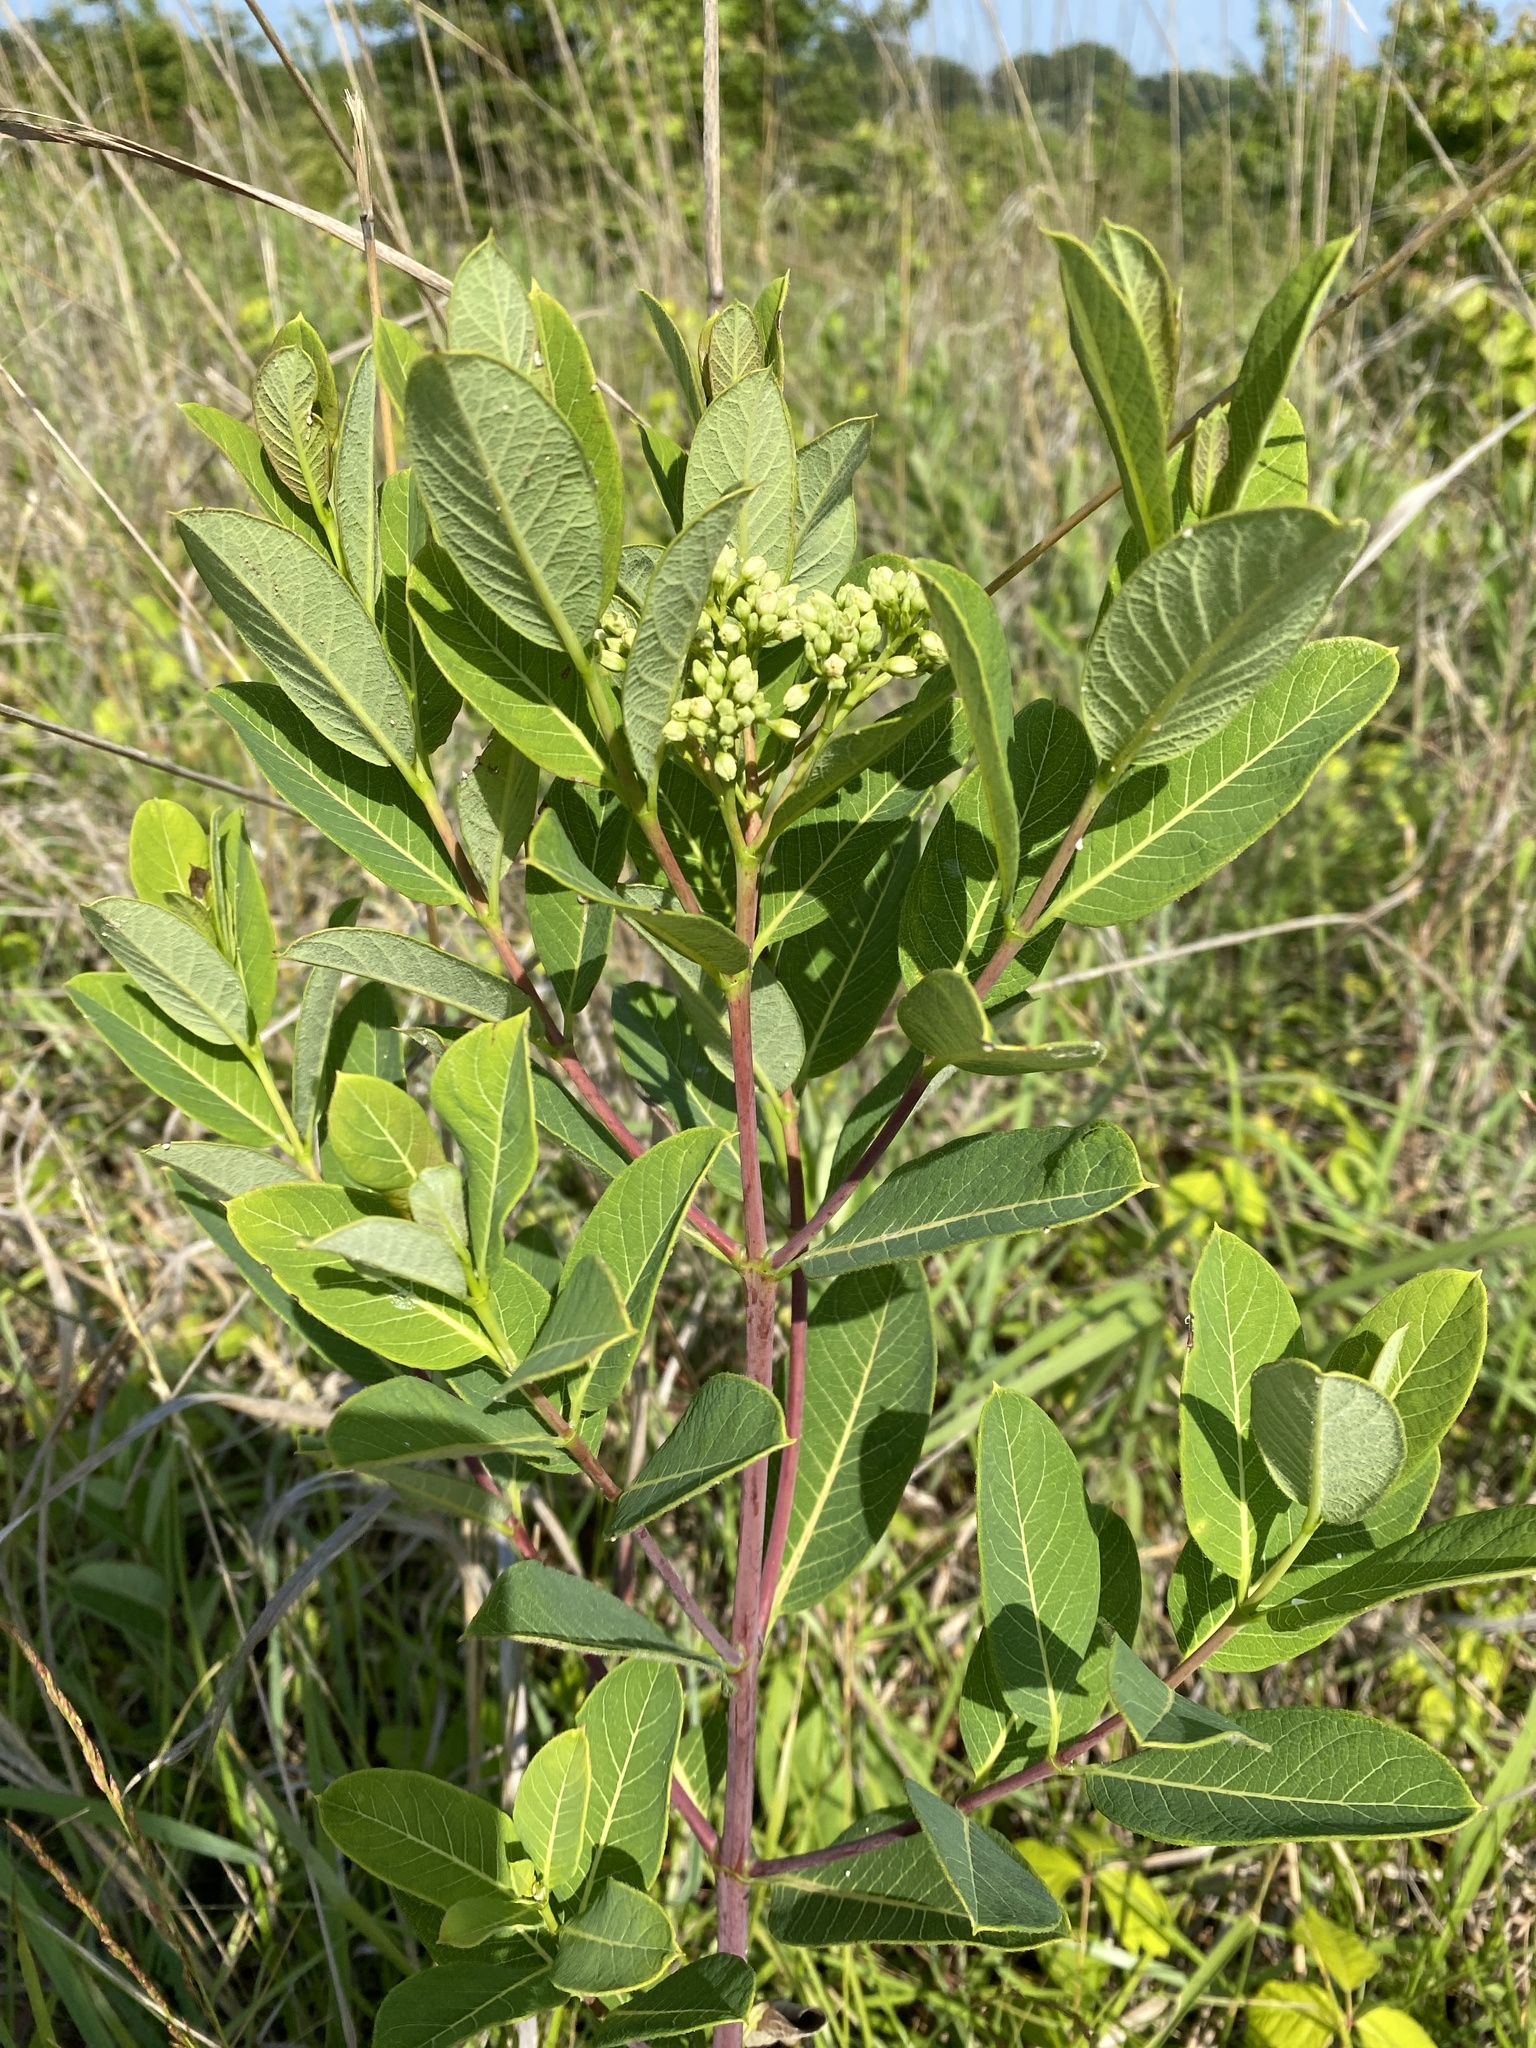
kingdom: Plantae
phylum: Tracheophyta
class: Magnoliopsida
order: Gentianales
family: Apocynaceae
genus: Apocynum
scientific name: Apocynum cannabinum
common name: Hemp dogbane
